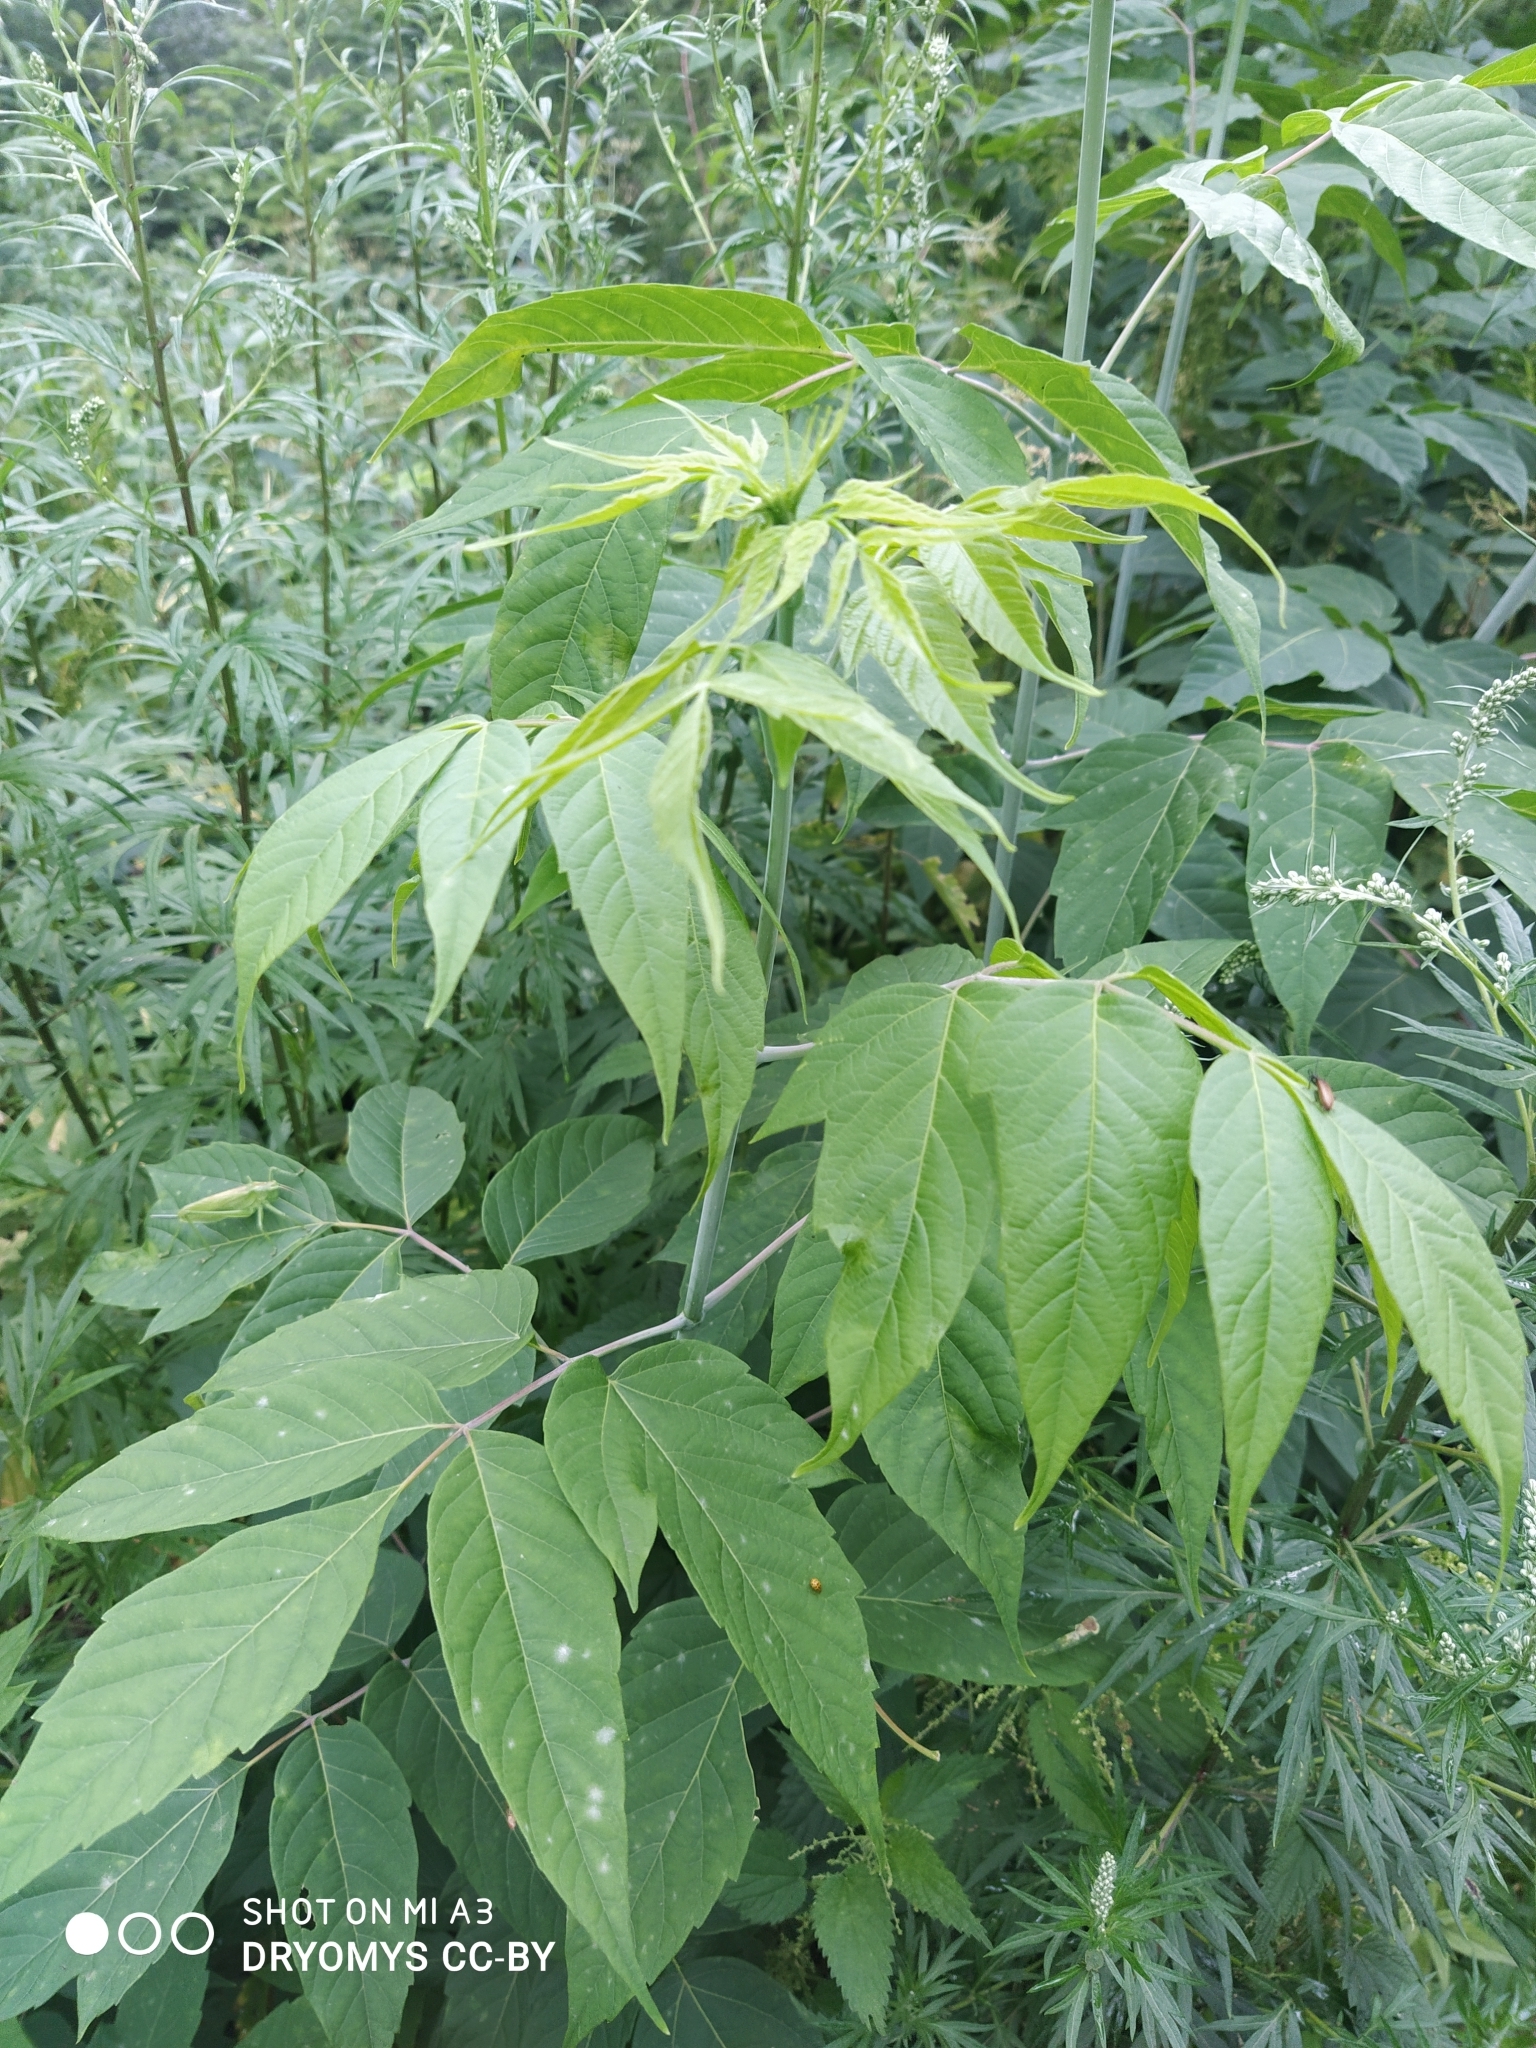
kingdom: Plantae
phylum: Tracheophyta
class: Magnoliopsida
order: Sapindales
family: Sapindaceae
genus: Acer
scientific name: Acer negundo
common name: Ashleaf maple
